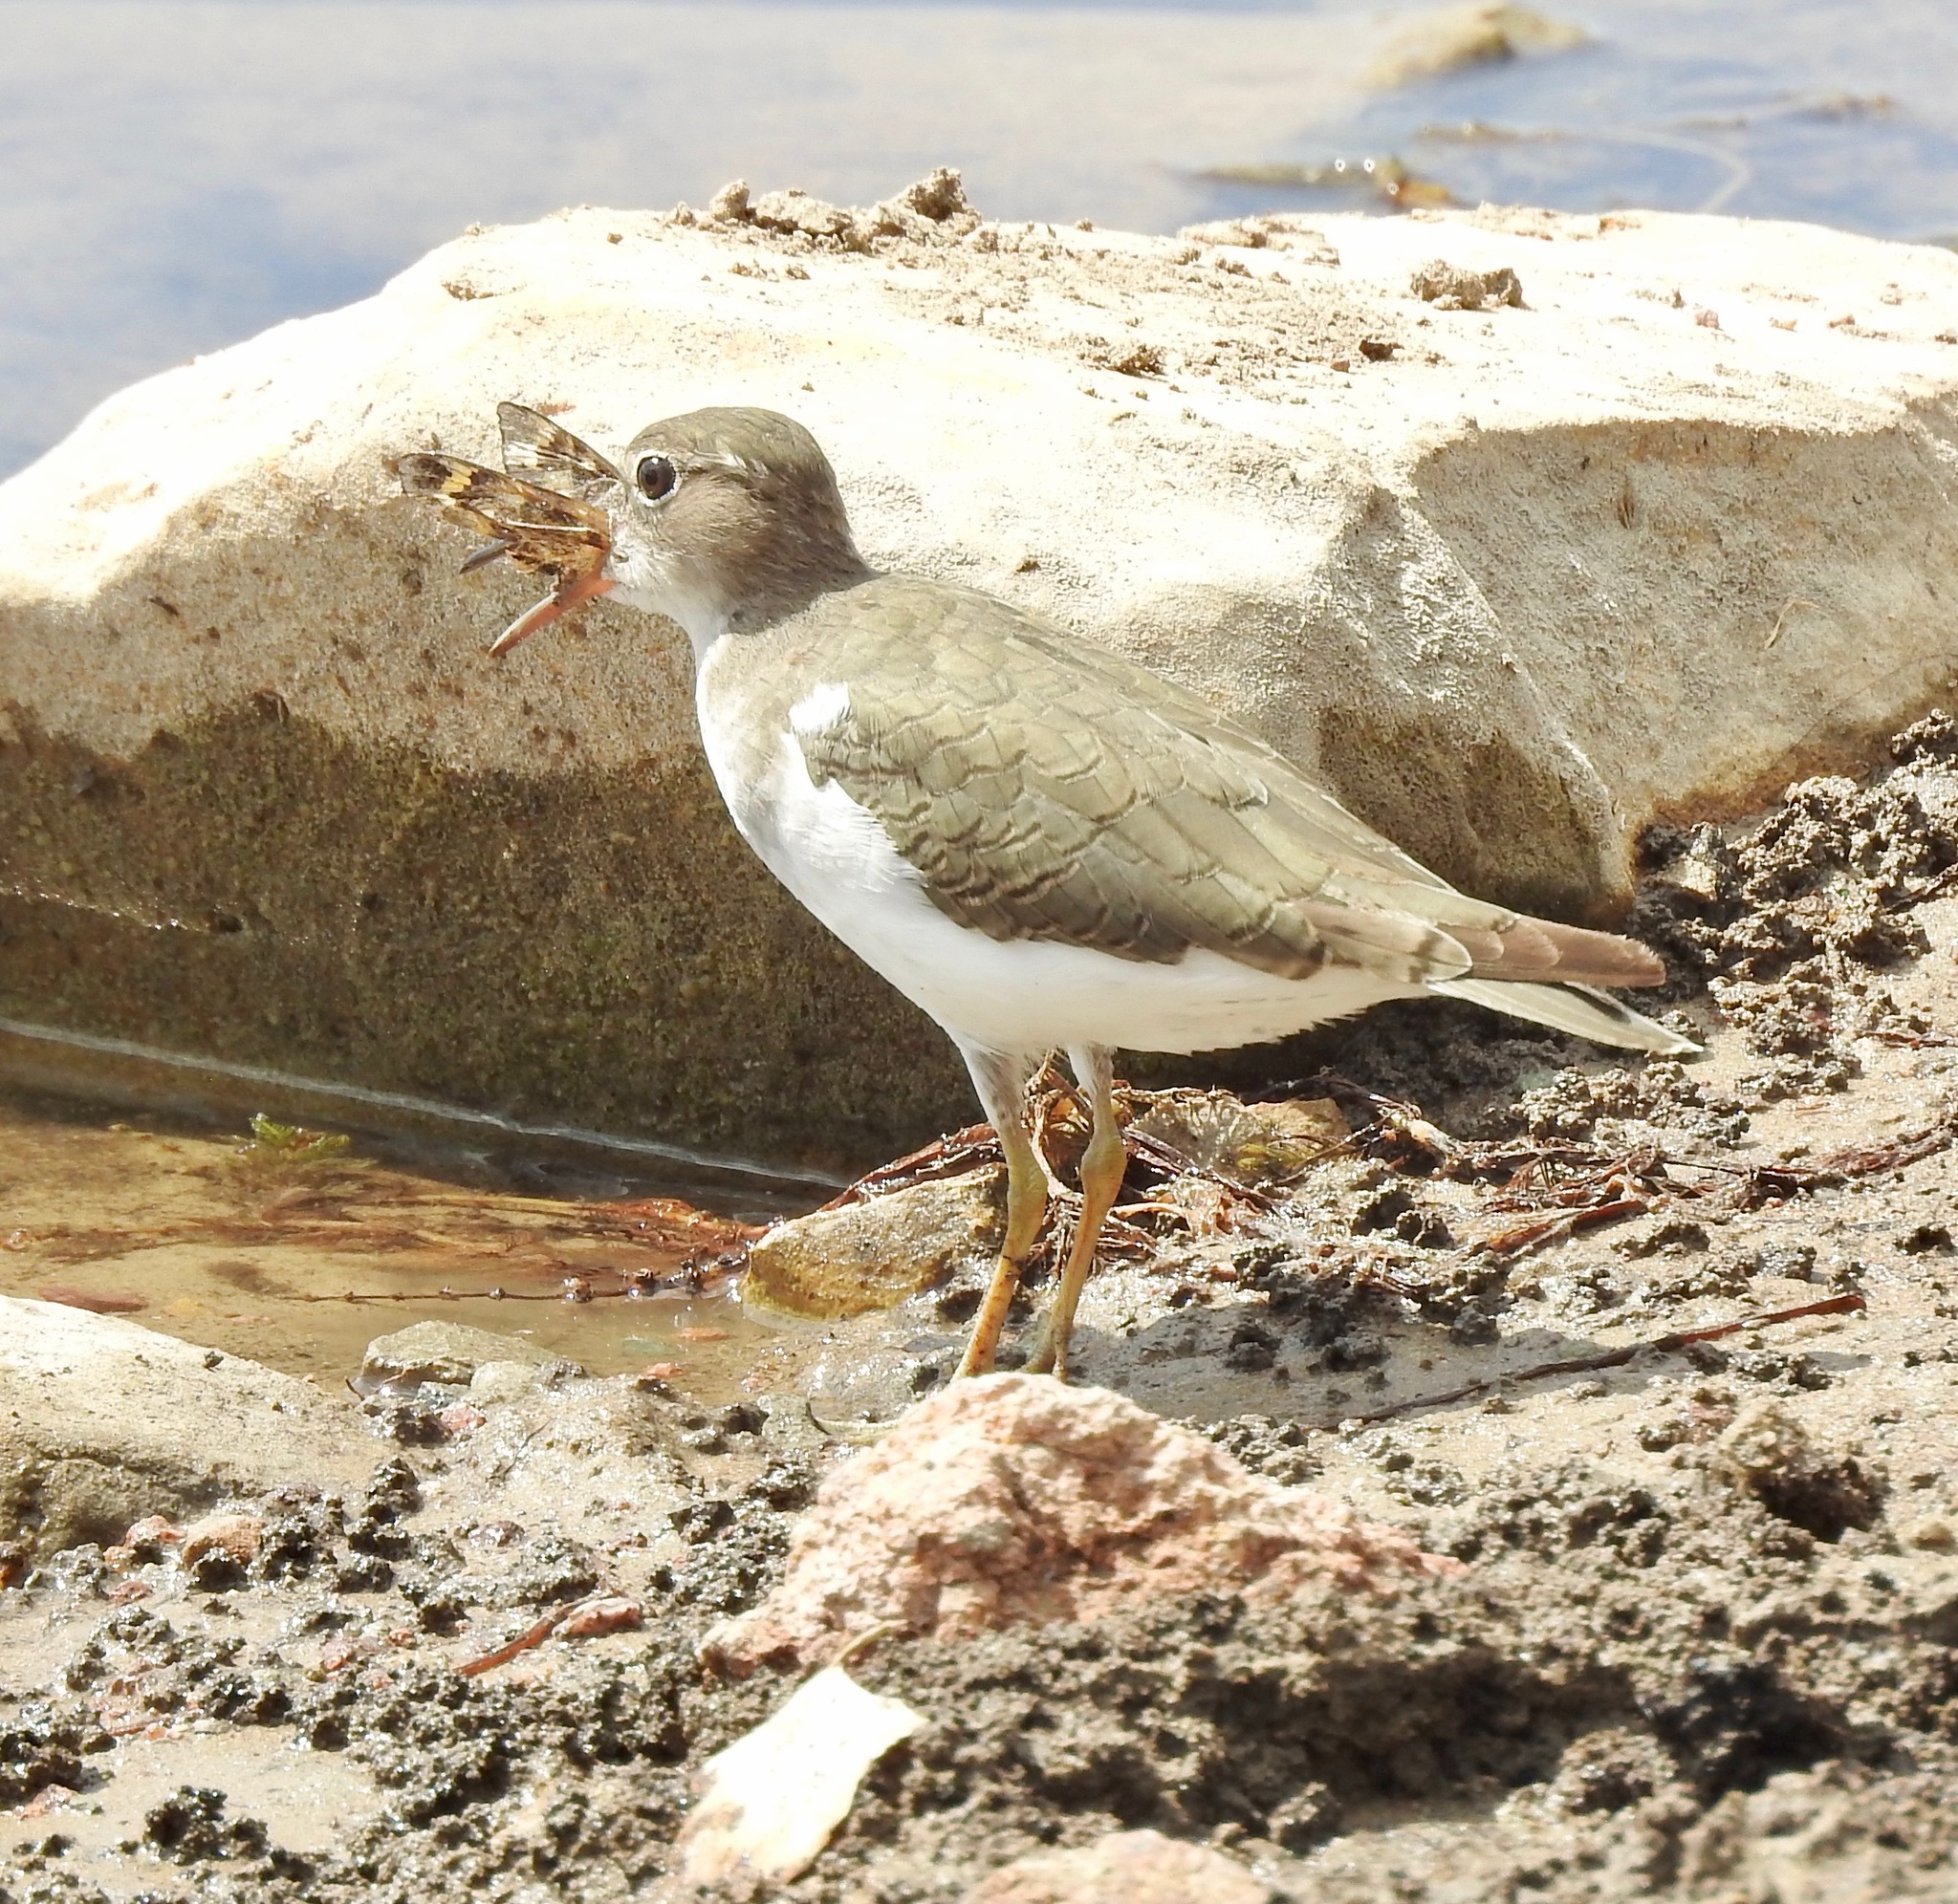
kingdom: Animalia
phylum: Chordata
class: Aves
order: Charadriiformes
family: Scolopacidae
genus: Actitis
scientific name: Actitis macularius
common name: Spotted sandpiper
